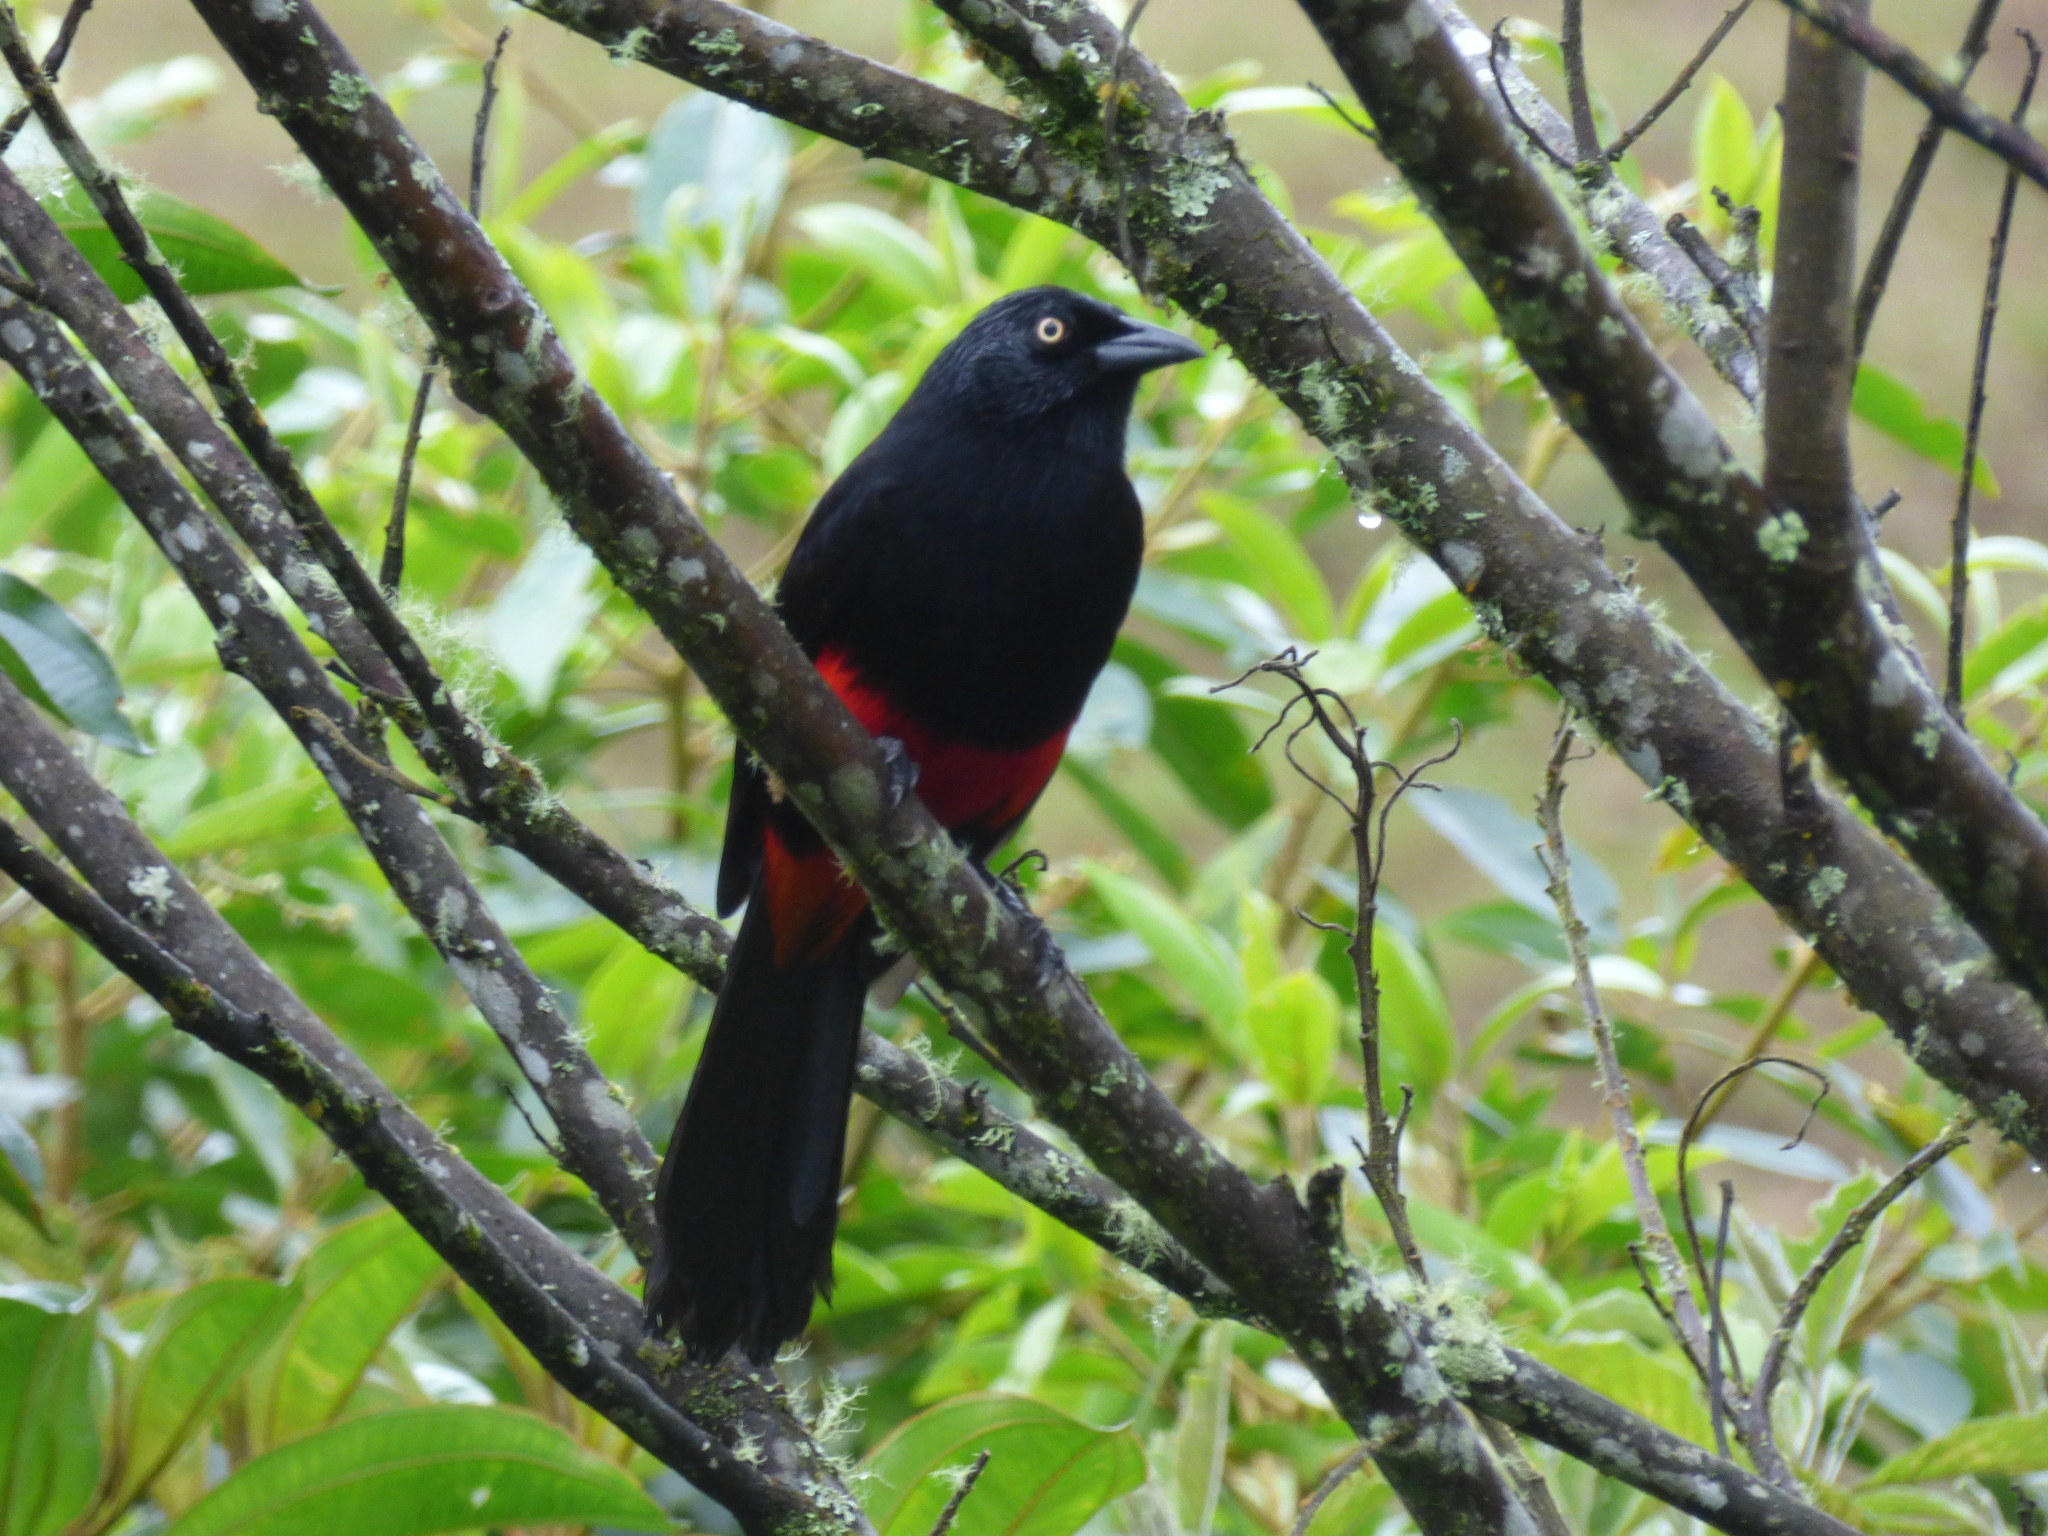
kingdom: Animalia
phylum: Chordata
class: Aves
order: Passeriformes
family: Icteridae
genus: Hypopyrrhus
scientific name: Hypopyrrhus pyrohypogaster
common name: Red-bellied grackle
